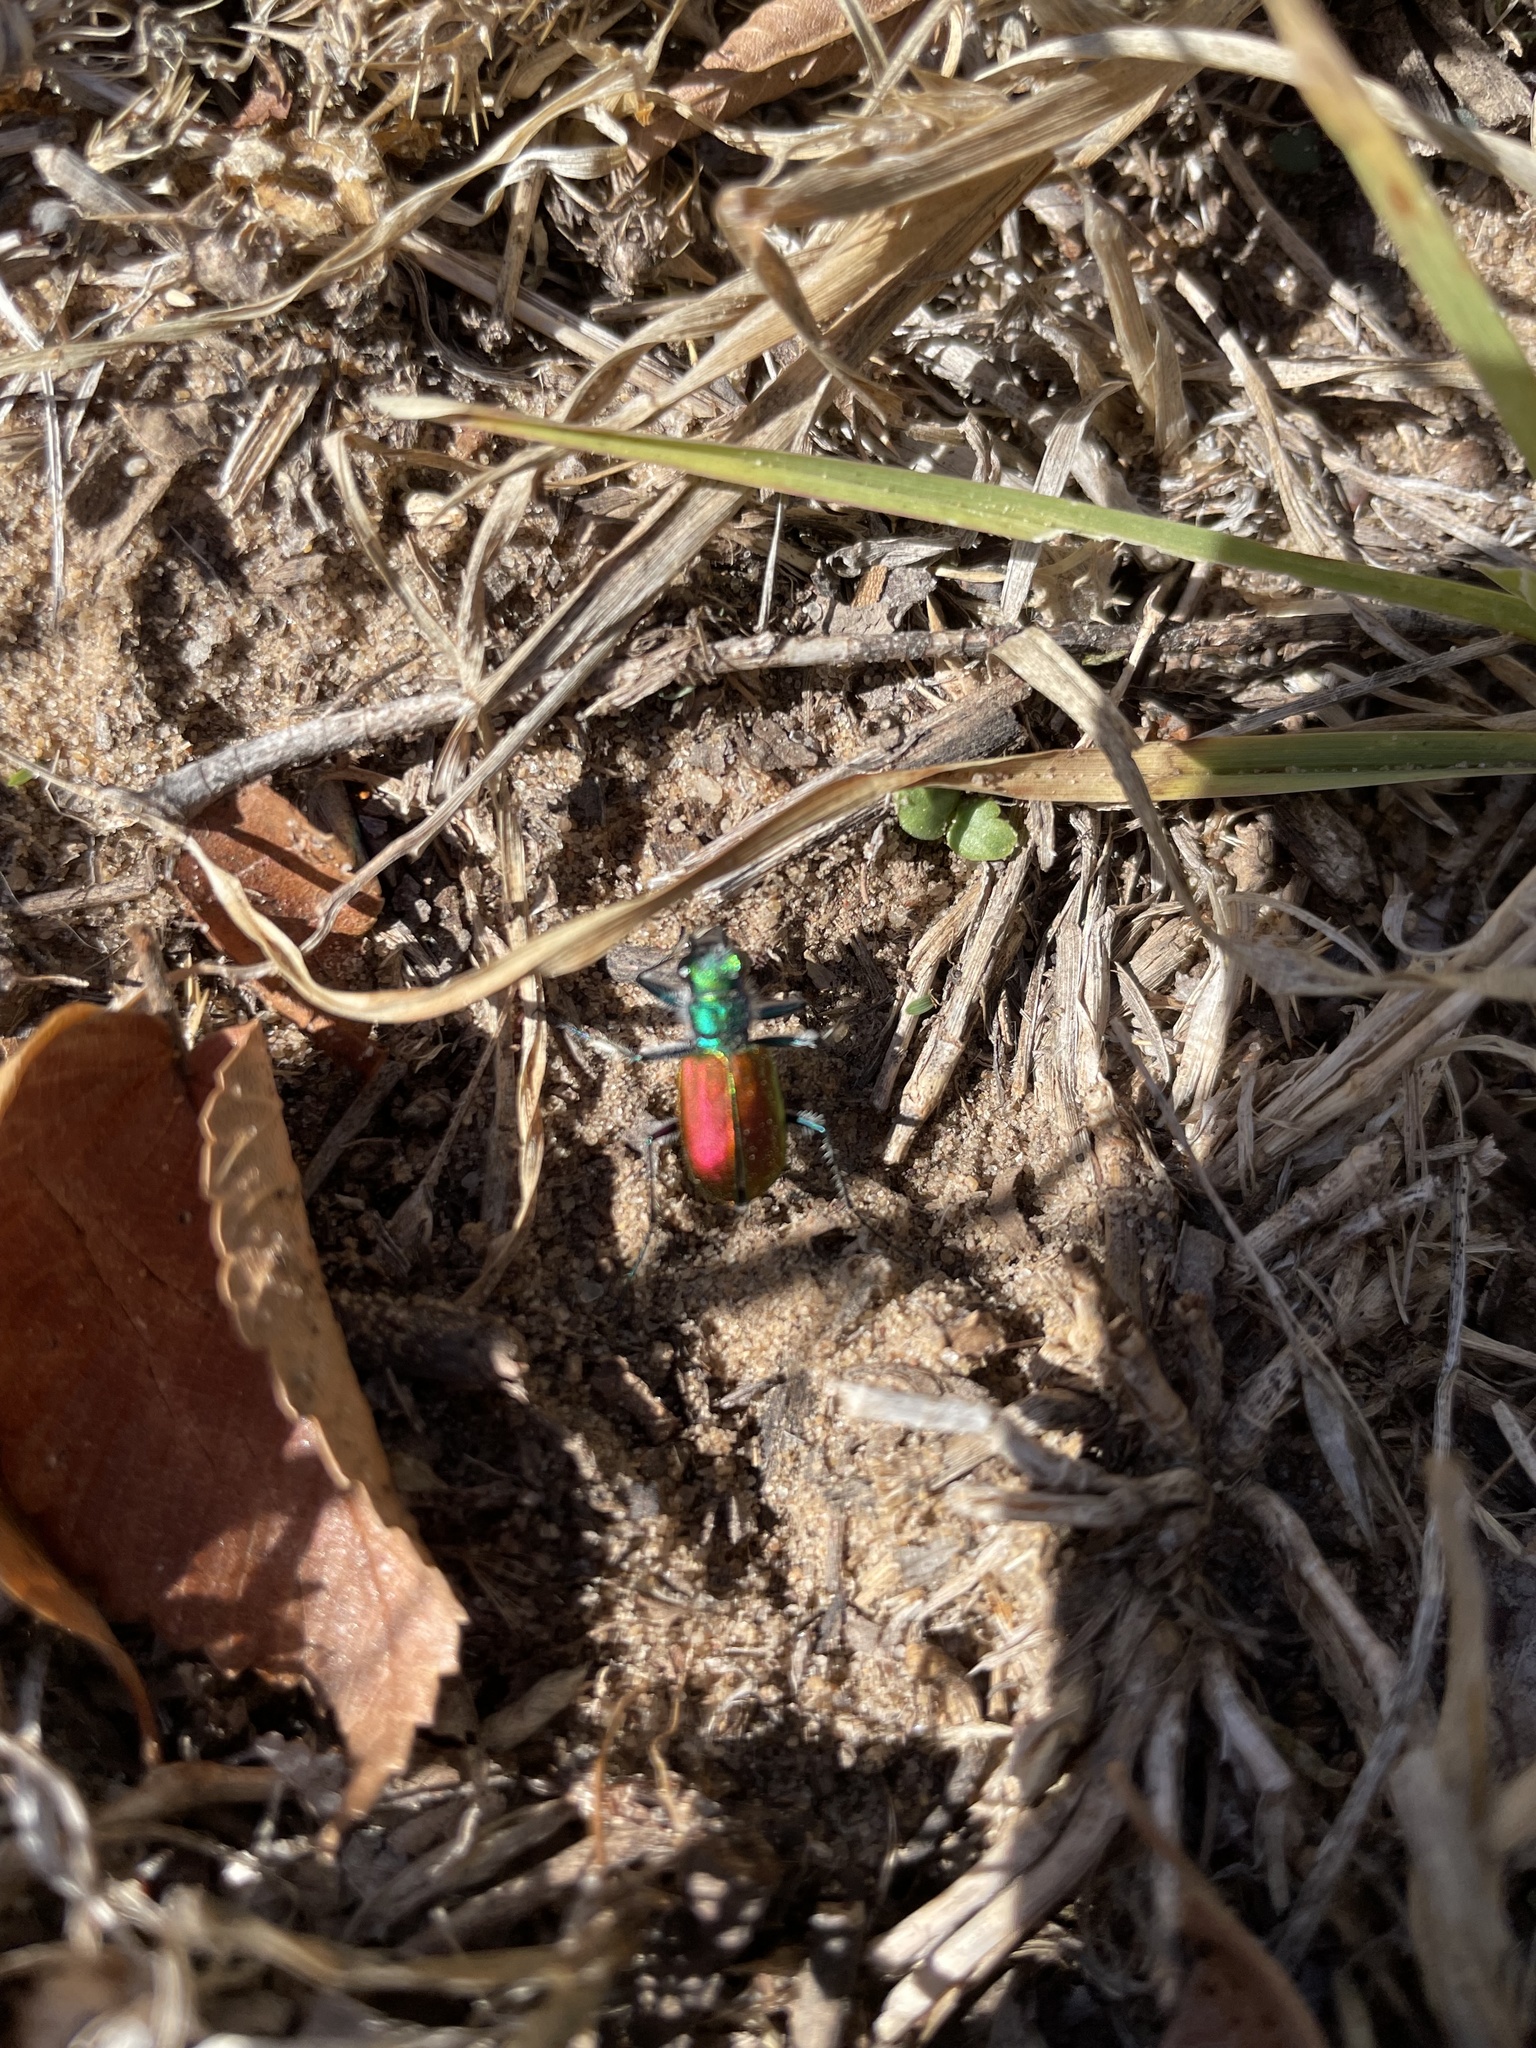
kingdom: Animalia
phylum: Arthropoda
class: Insecta
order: Coleoptera
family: Carabidae
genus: Cicindela
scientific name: Cicindela scutellaris
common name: Festive tiger beetle
